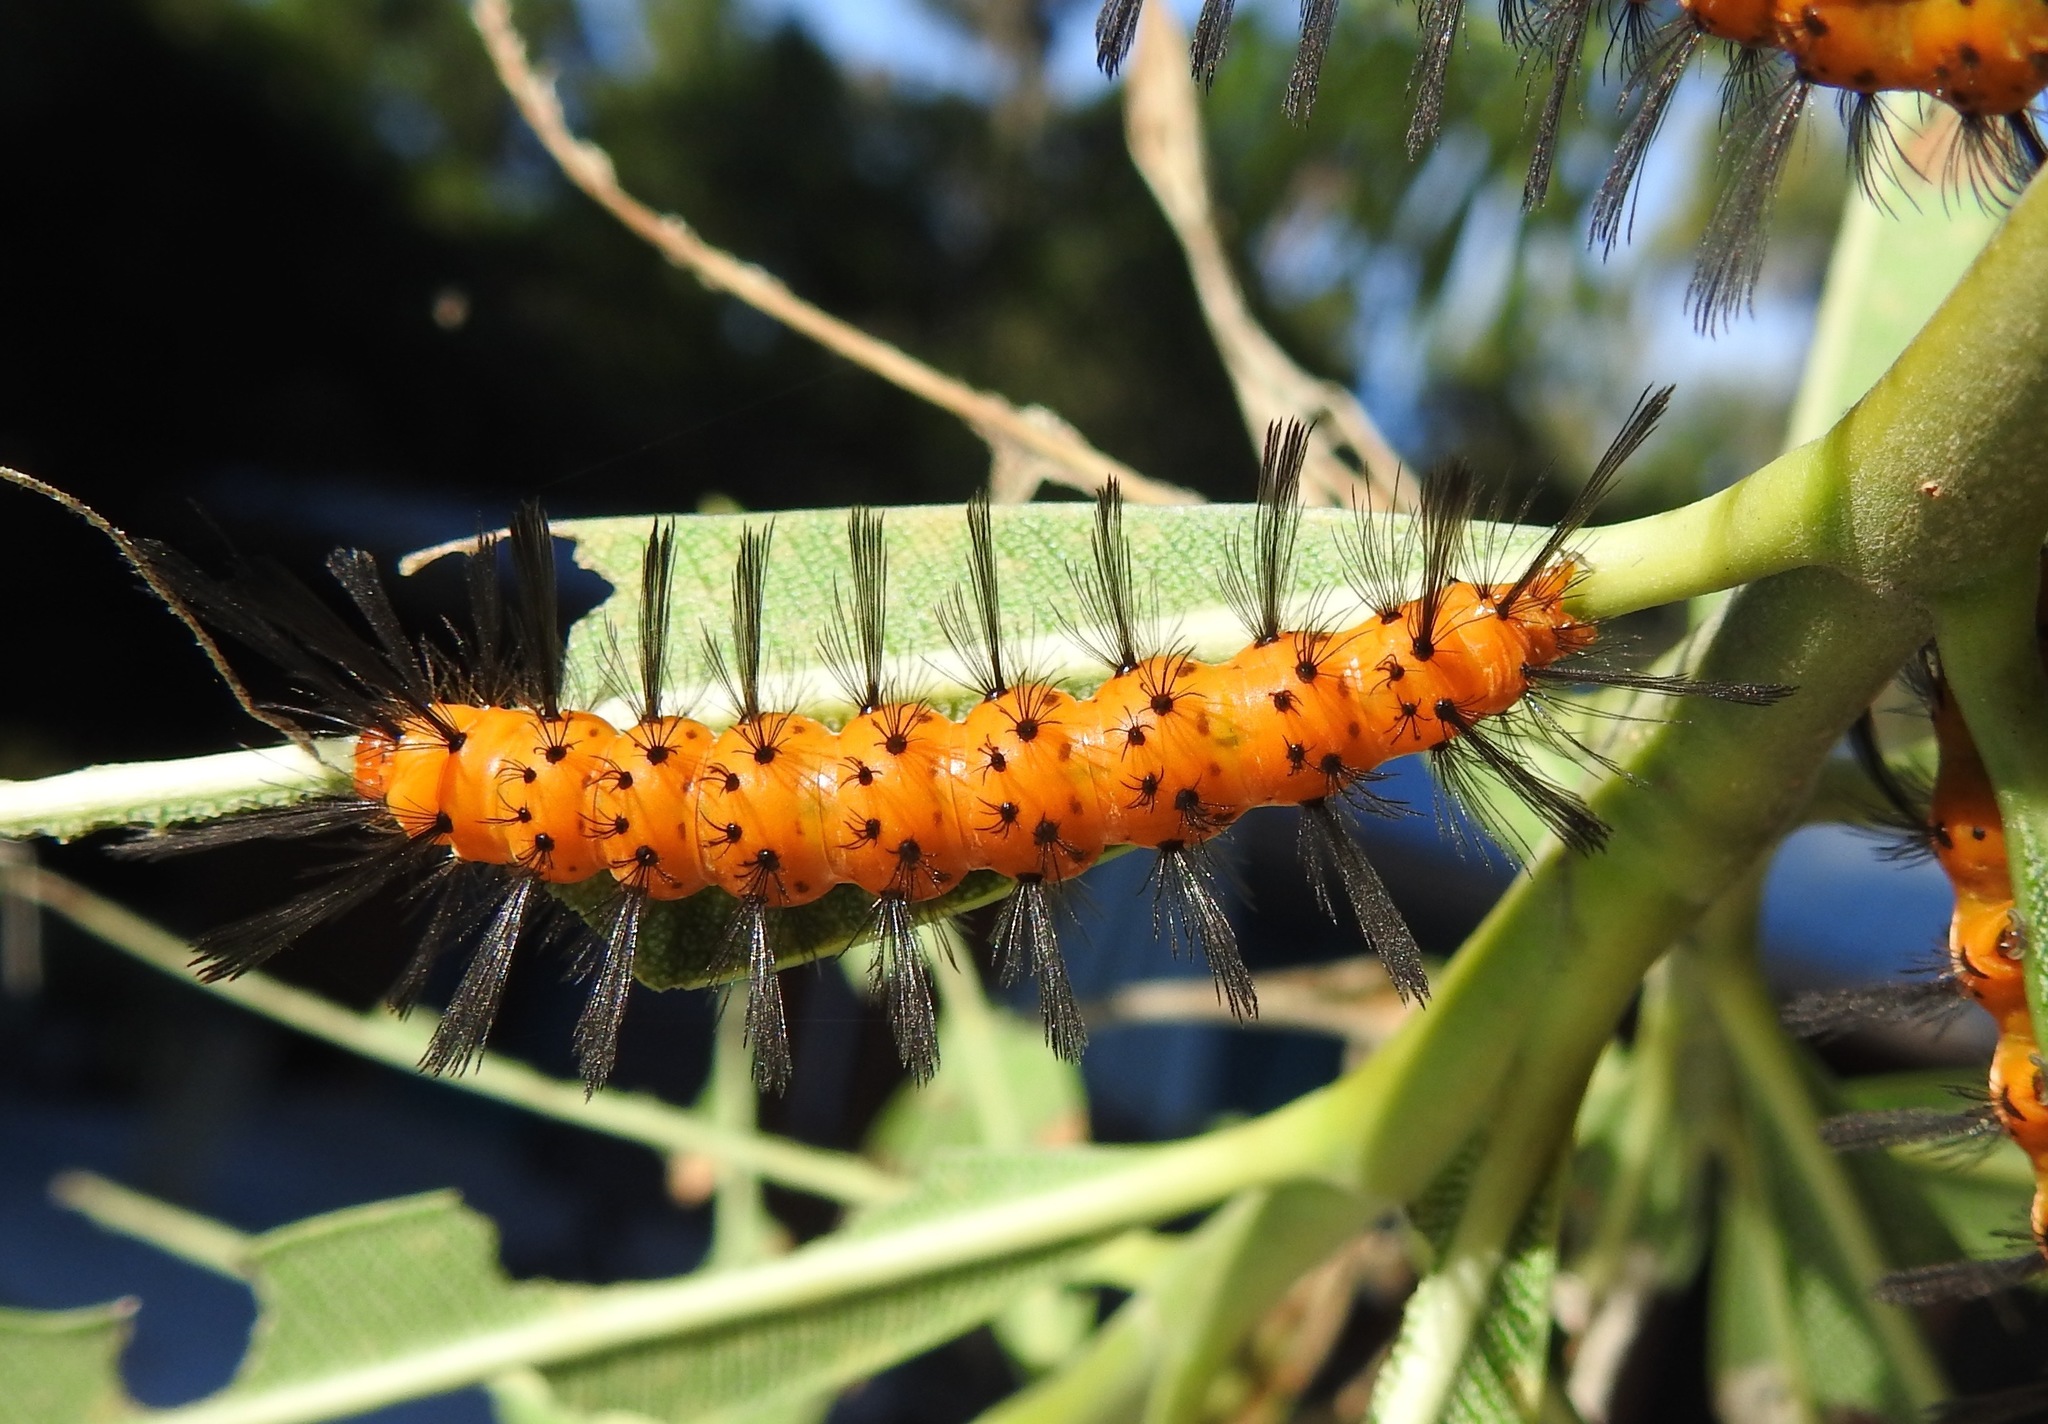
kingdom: Animalia
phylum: Arthropoda
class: Insecta
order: Lepidoptera
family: Erebidae
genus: Syntomeida
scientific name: Syntomeida epilais
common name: Polka-dot wasp moth
